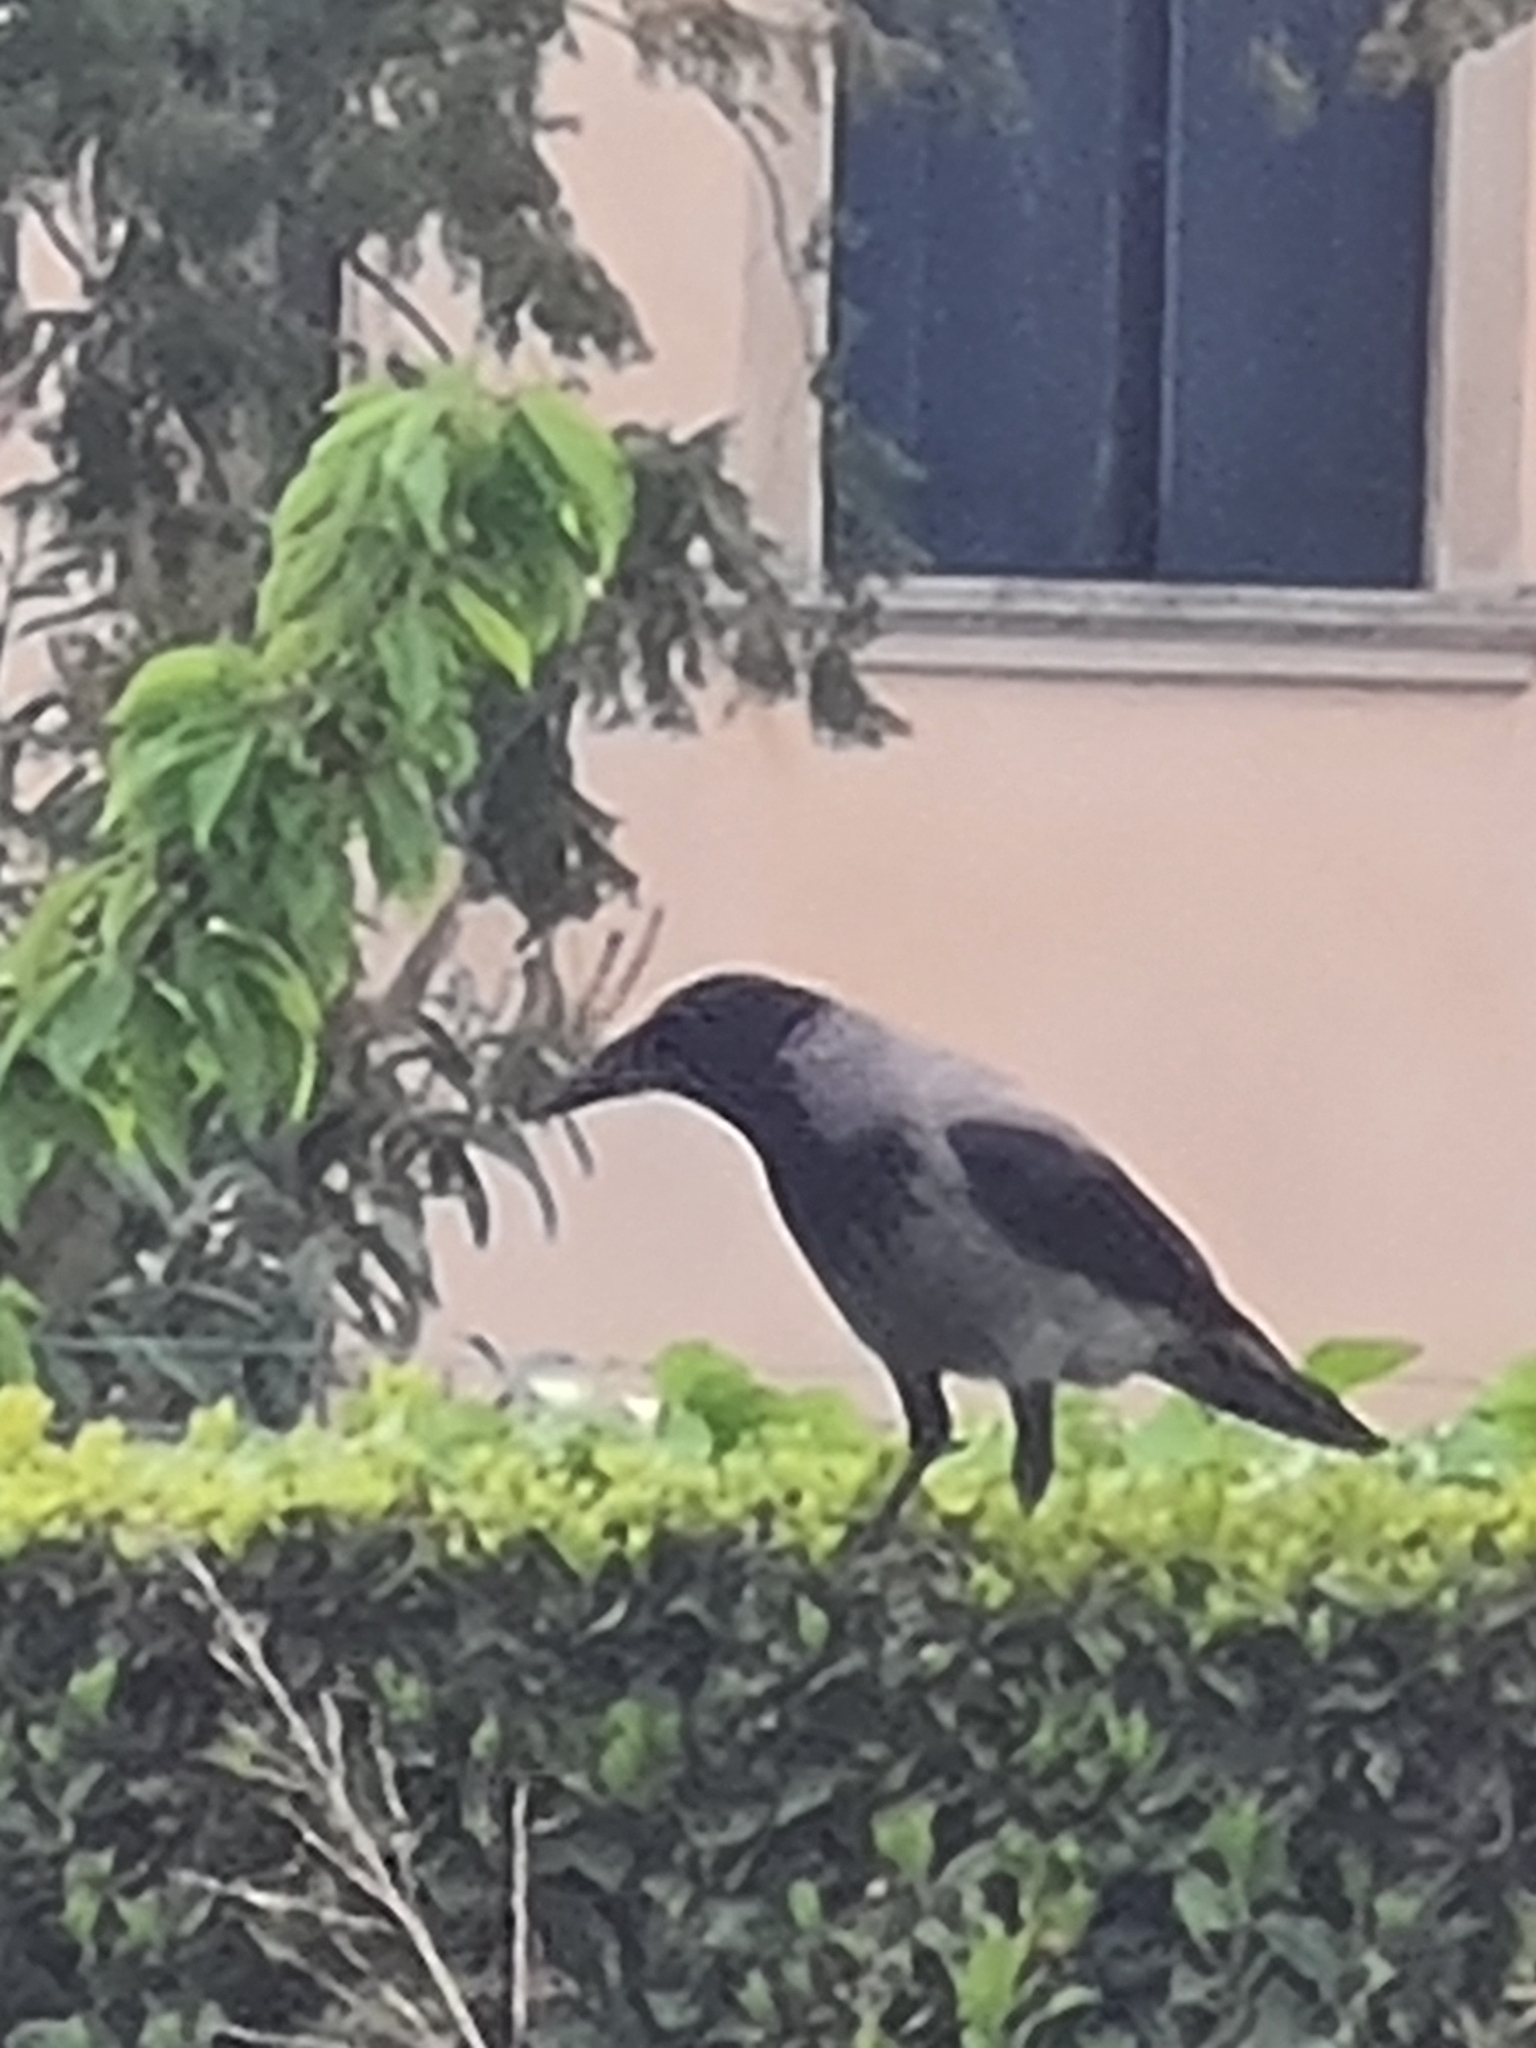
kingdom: Animalia
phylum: Chordata
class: Aves
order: Passeriformes
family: Corvidae
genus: Corvus
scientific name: Corvus cornix
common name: Hooded crow
